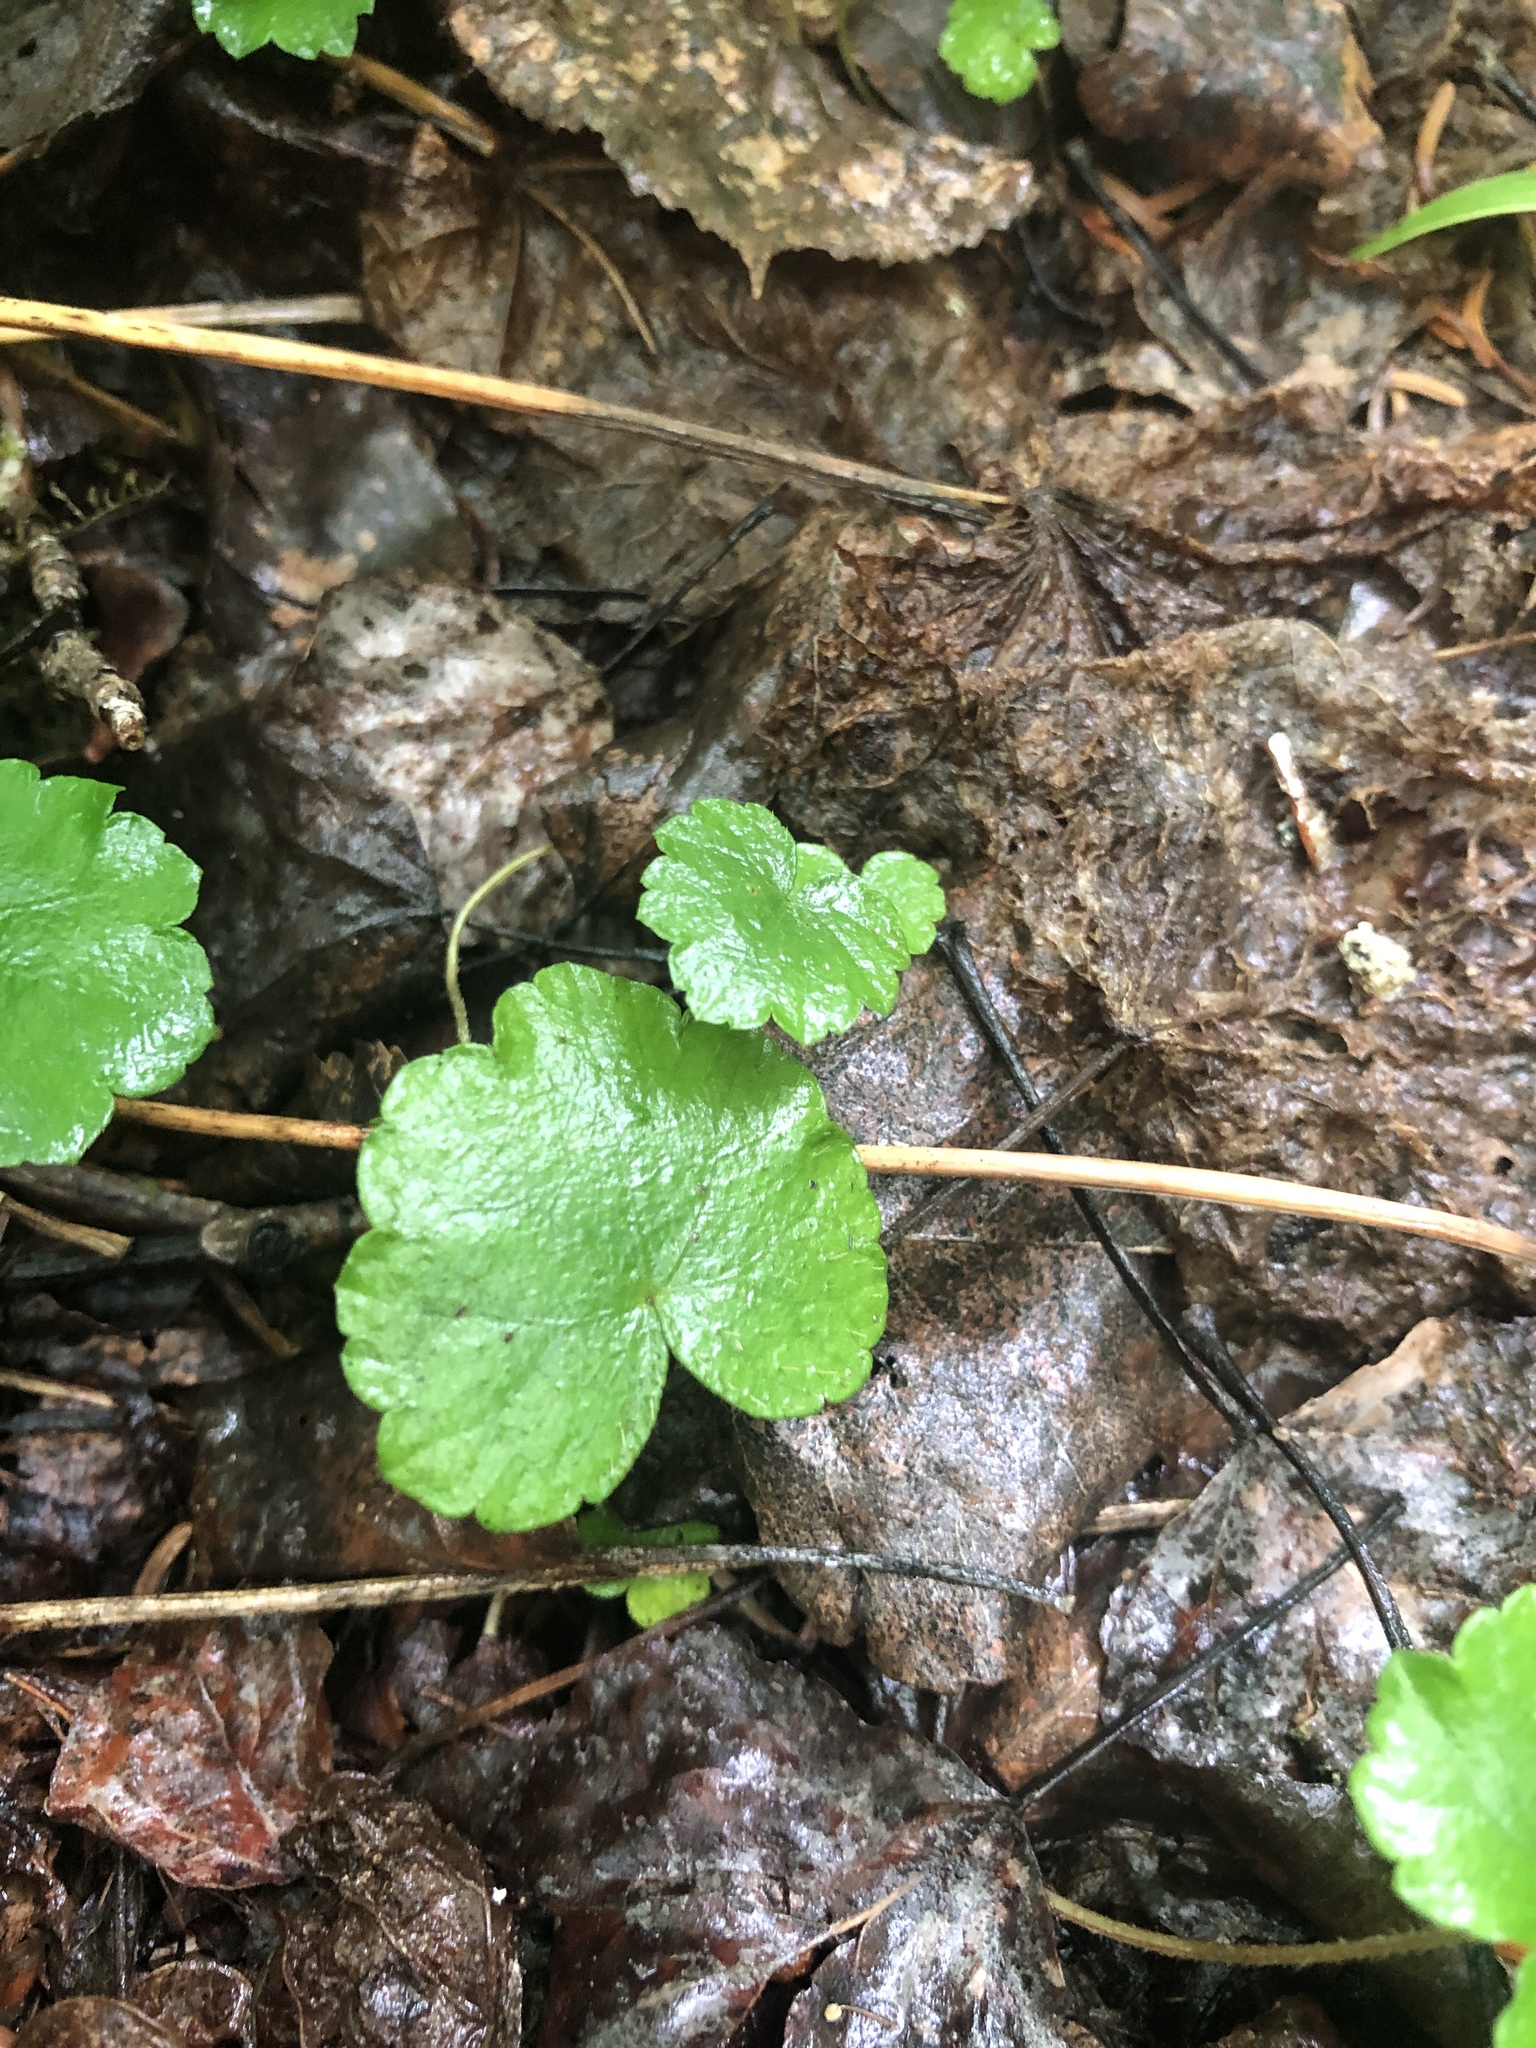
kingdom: Plantae
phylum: Tracheophyta
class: Magnoliopsida
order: Saxifragales
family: Saxifragaceae
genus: Mitella
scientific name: Mitella nuda
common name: Bare-stemmed bishop's-cap
